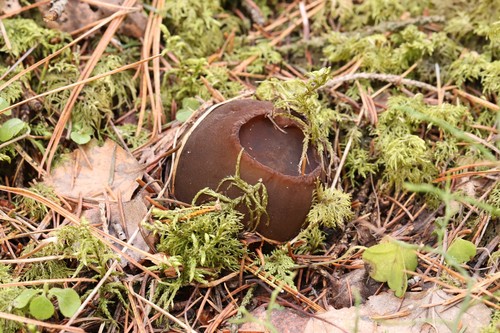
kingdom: Fungi
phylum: Ascomycota
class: Pezizomycetes
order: Pezizales
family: Sarcosomataceae
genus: Sarcosoma
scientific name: Sarcosoma globosum
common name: Charred-pancake cup
